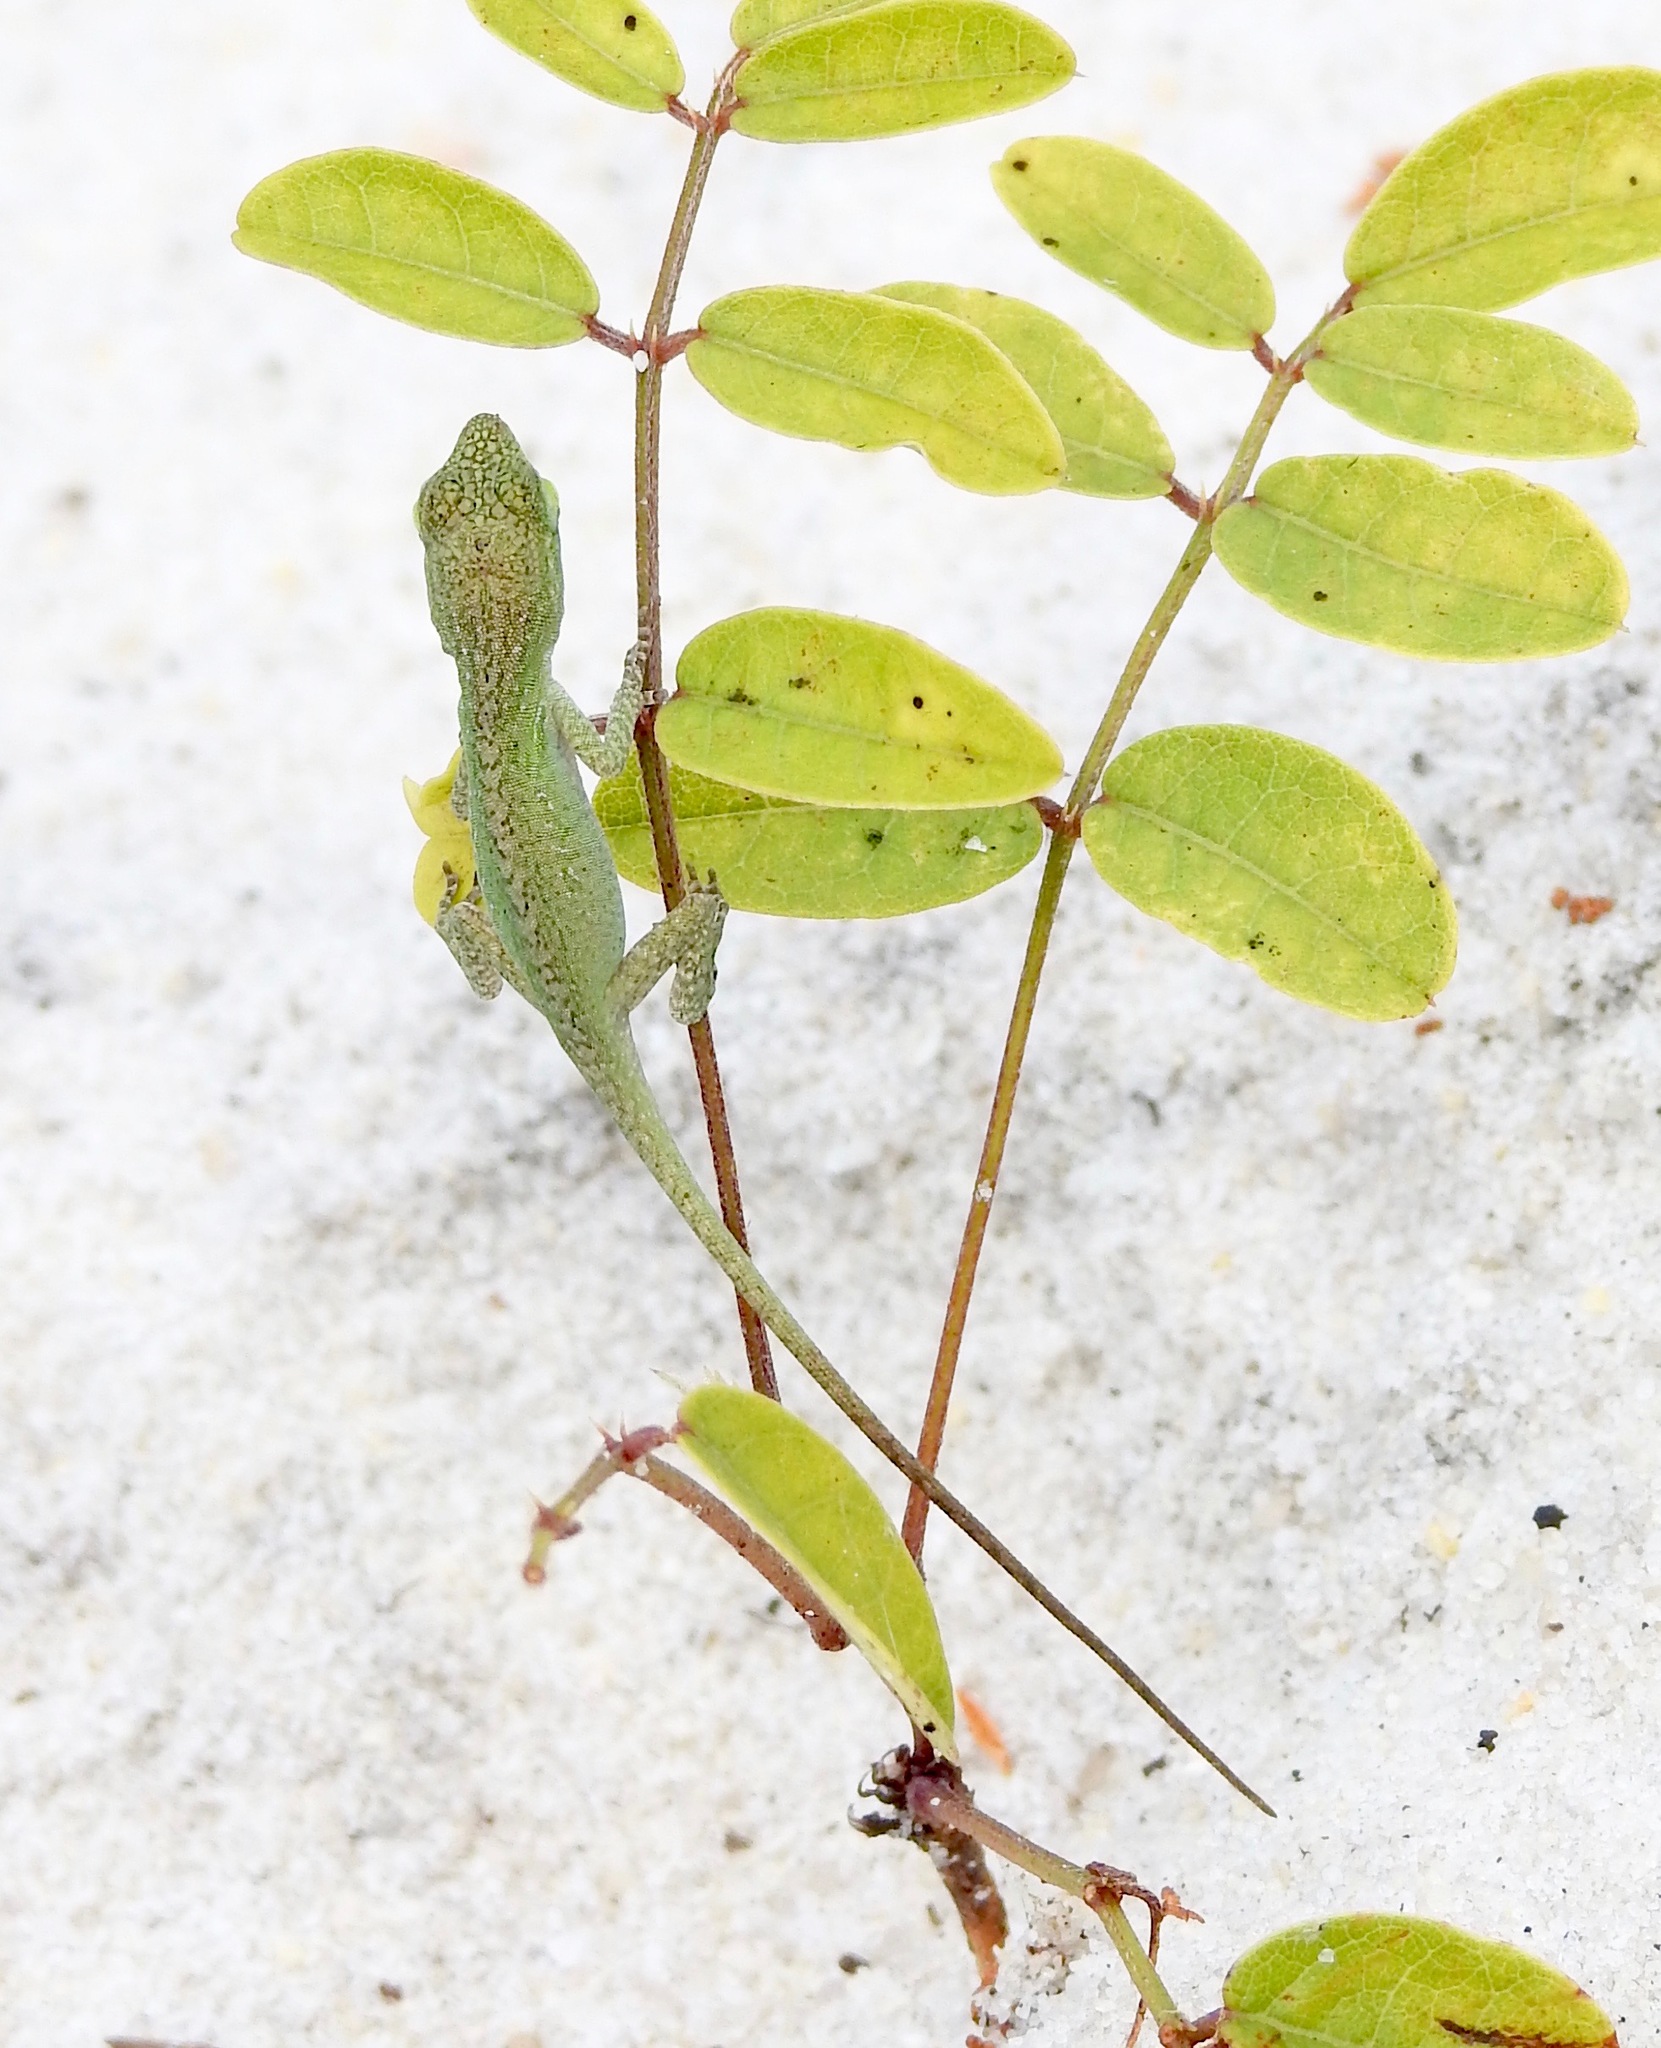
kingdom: Animalia
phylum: Chordata
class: Squamata
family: Dactyloidae
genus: Anolis
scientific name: Anolis carolinensis
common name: Green anole
